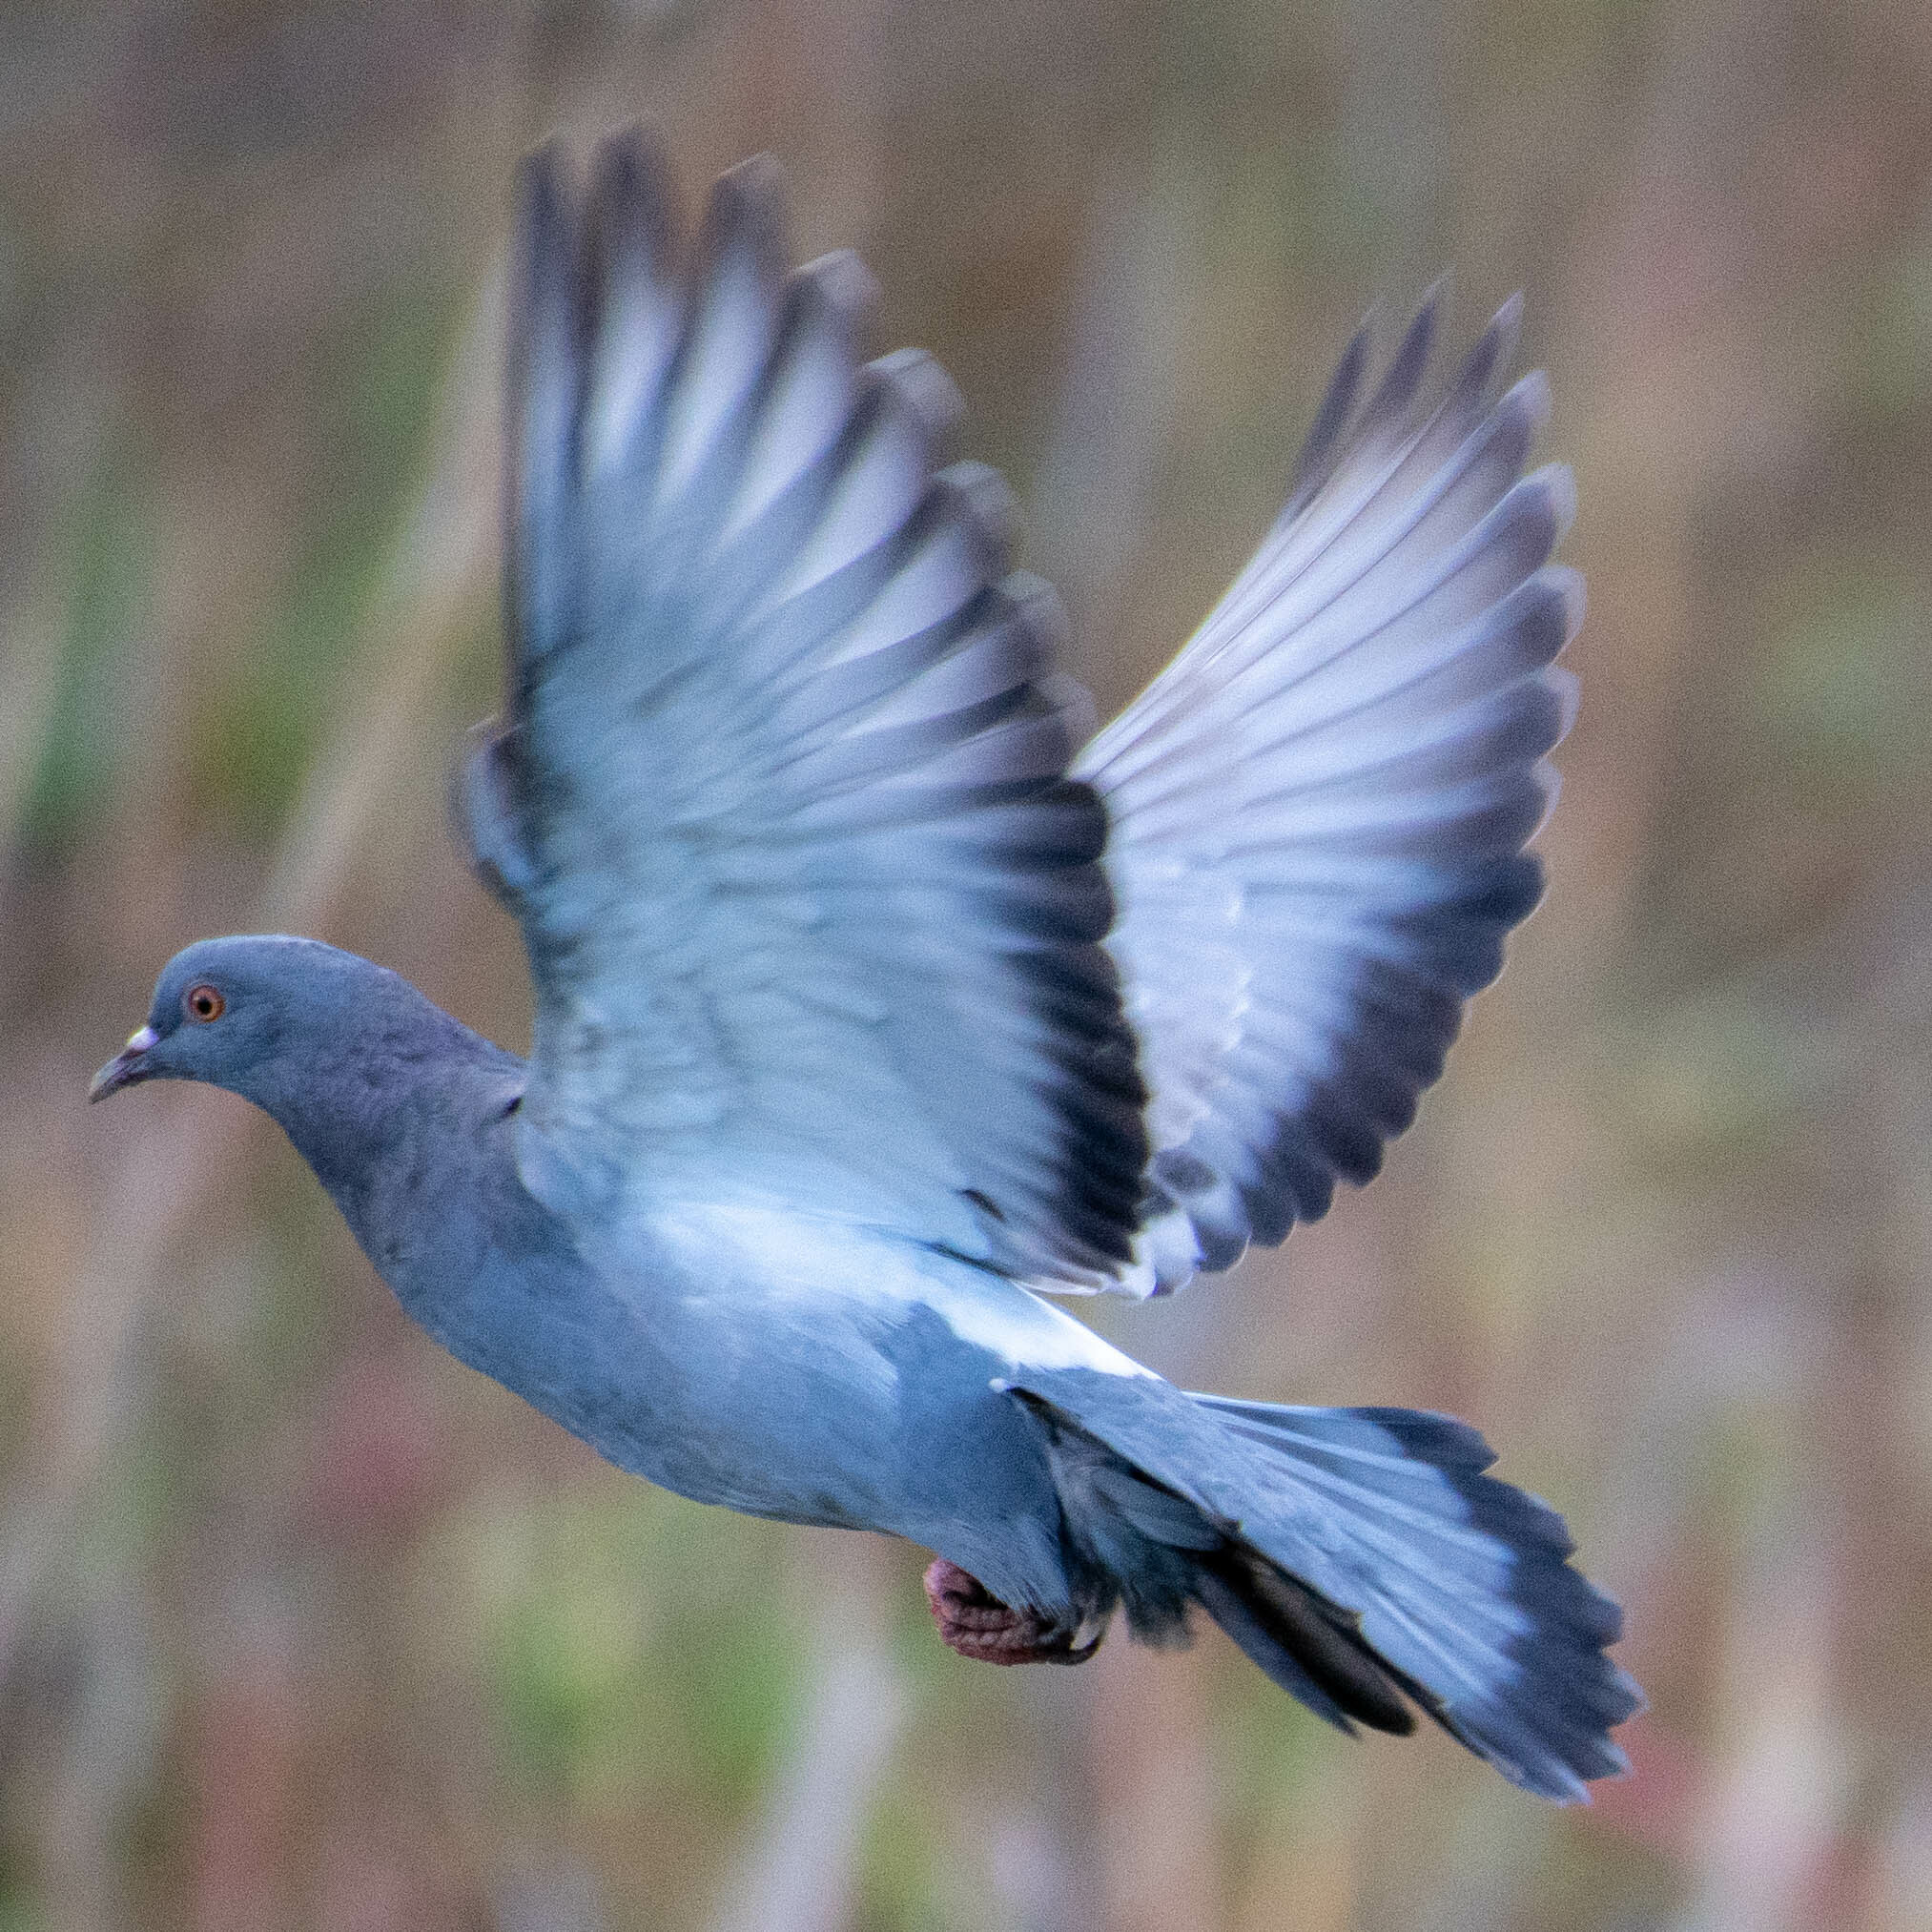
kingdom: Animalia
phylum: Chordata
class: Aves
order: Columbiformes
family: Columbidae
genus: Columba
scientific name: Columba livia
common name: Rock pigeon
